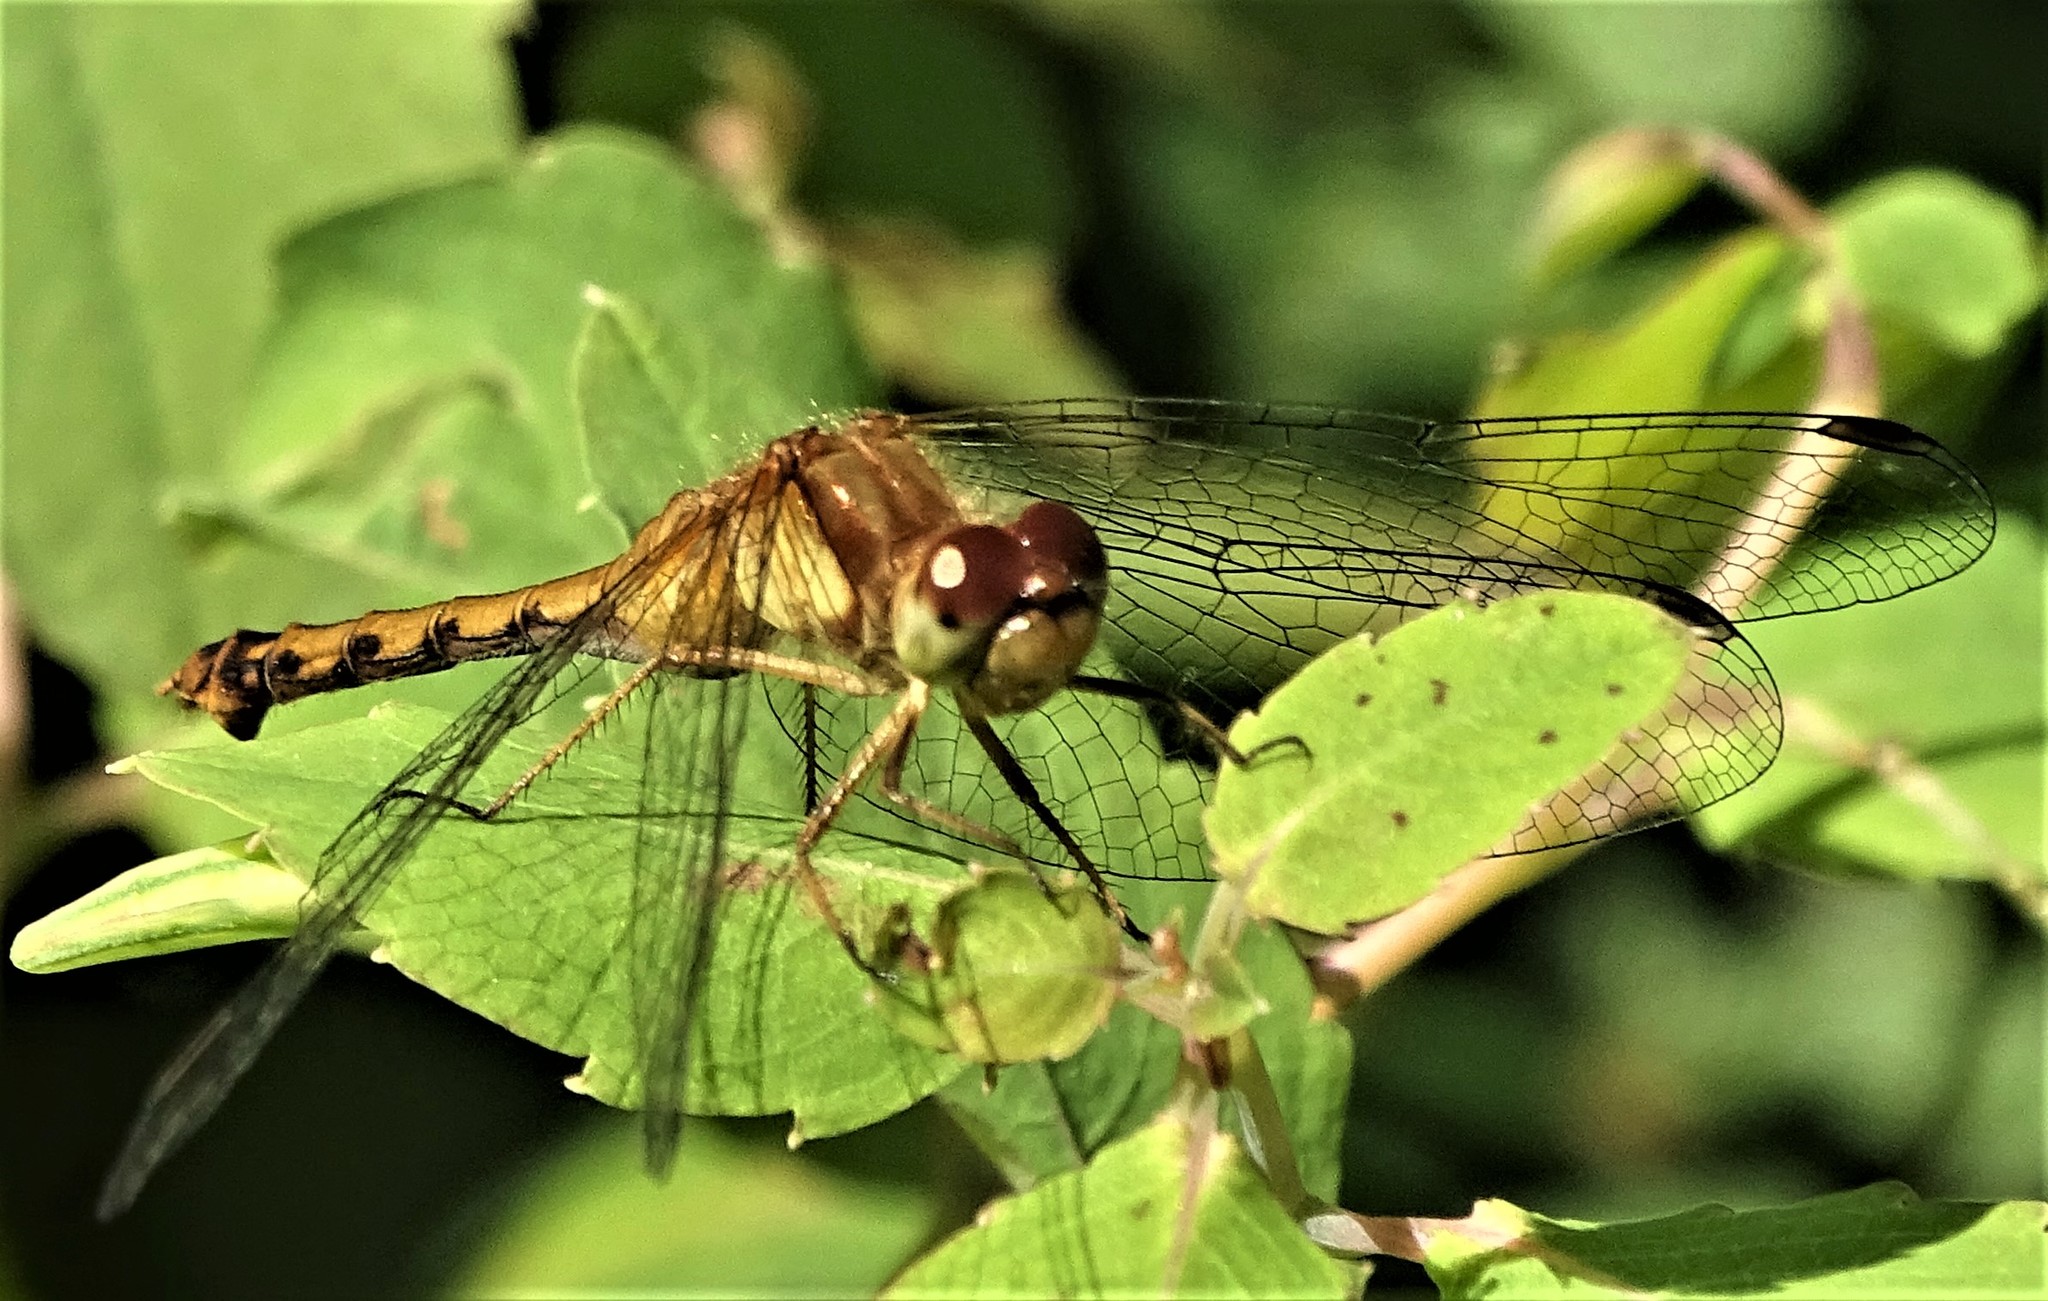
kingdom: Animalia
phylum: Arthropoda
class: Insecta
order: Odonata
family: Libellulidae
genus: Sympetrum
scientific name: Sympetrum vicinum
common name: Autumn meadowhawk
